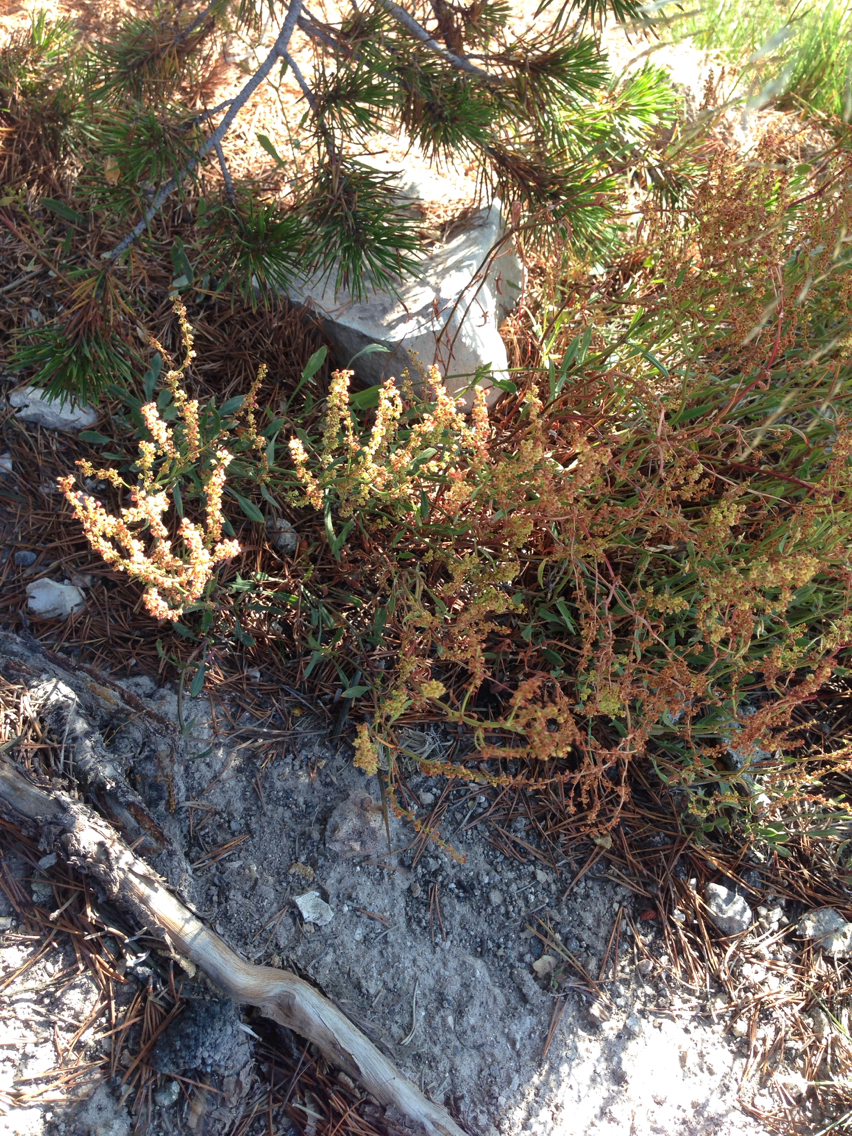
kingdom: Plantae
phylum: Tracheophyta
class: Magnoliopsida
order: Caryophyllales
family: Polygonaceae
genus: Rumex
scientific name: Rumex acetosella
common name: Common sheep sorrel
